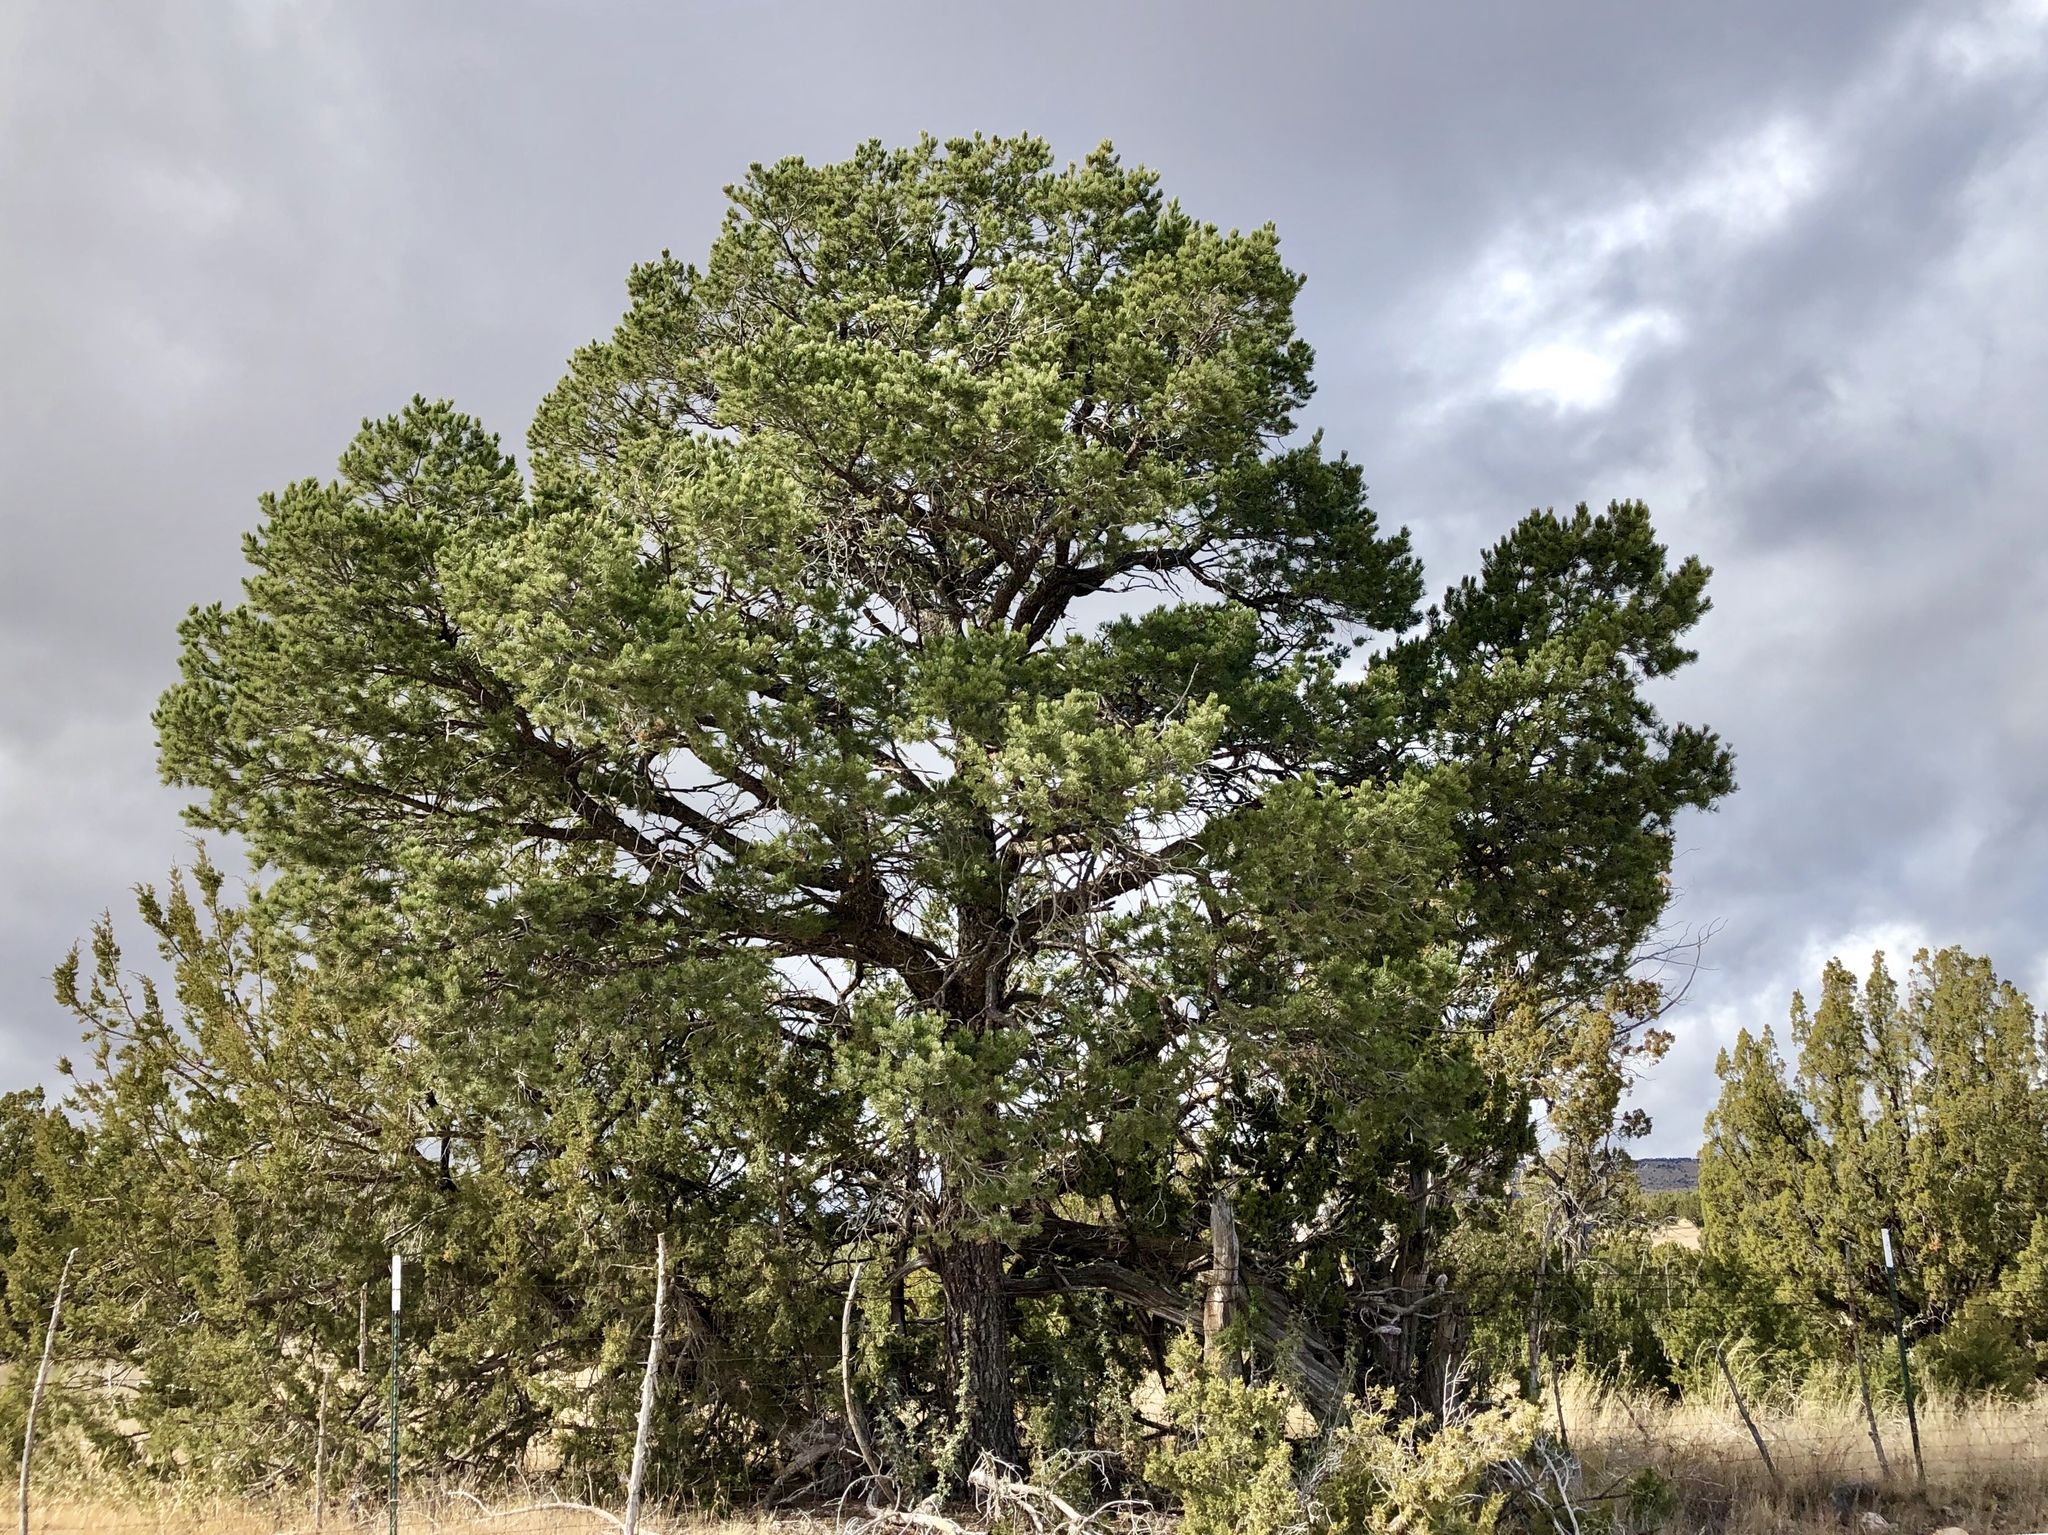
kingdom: Plantae
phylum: Tracheophyta
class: Pinopsida
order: Pinales
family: Pinaceae
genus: Pinus
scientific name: Pinus edulis
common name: Colorado pinyon
